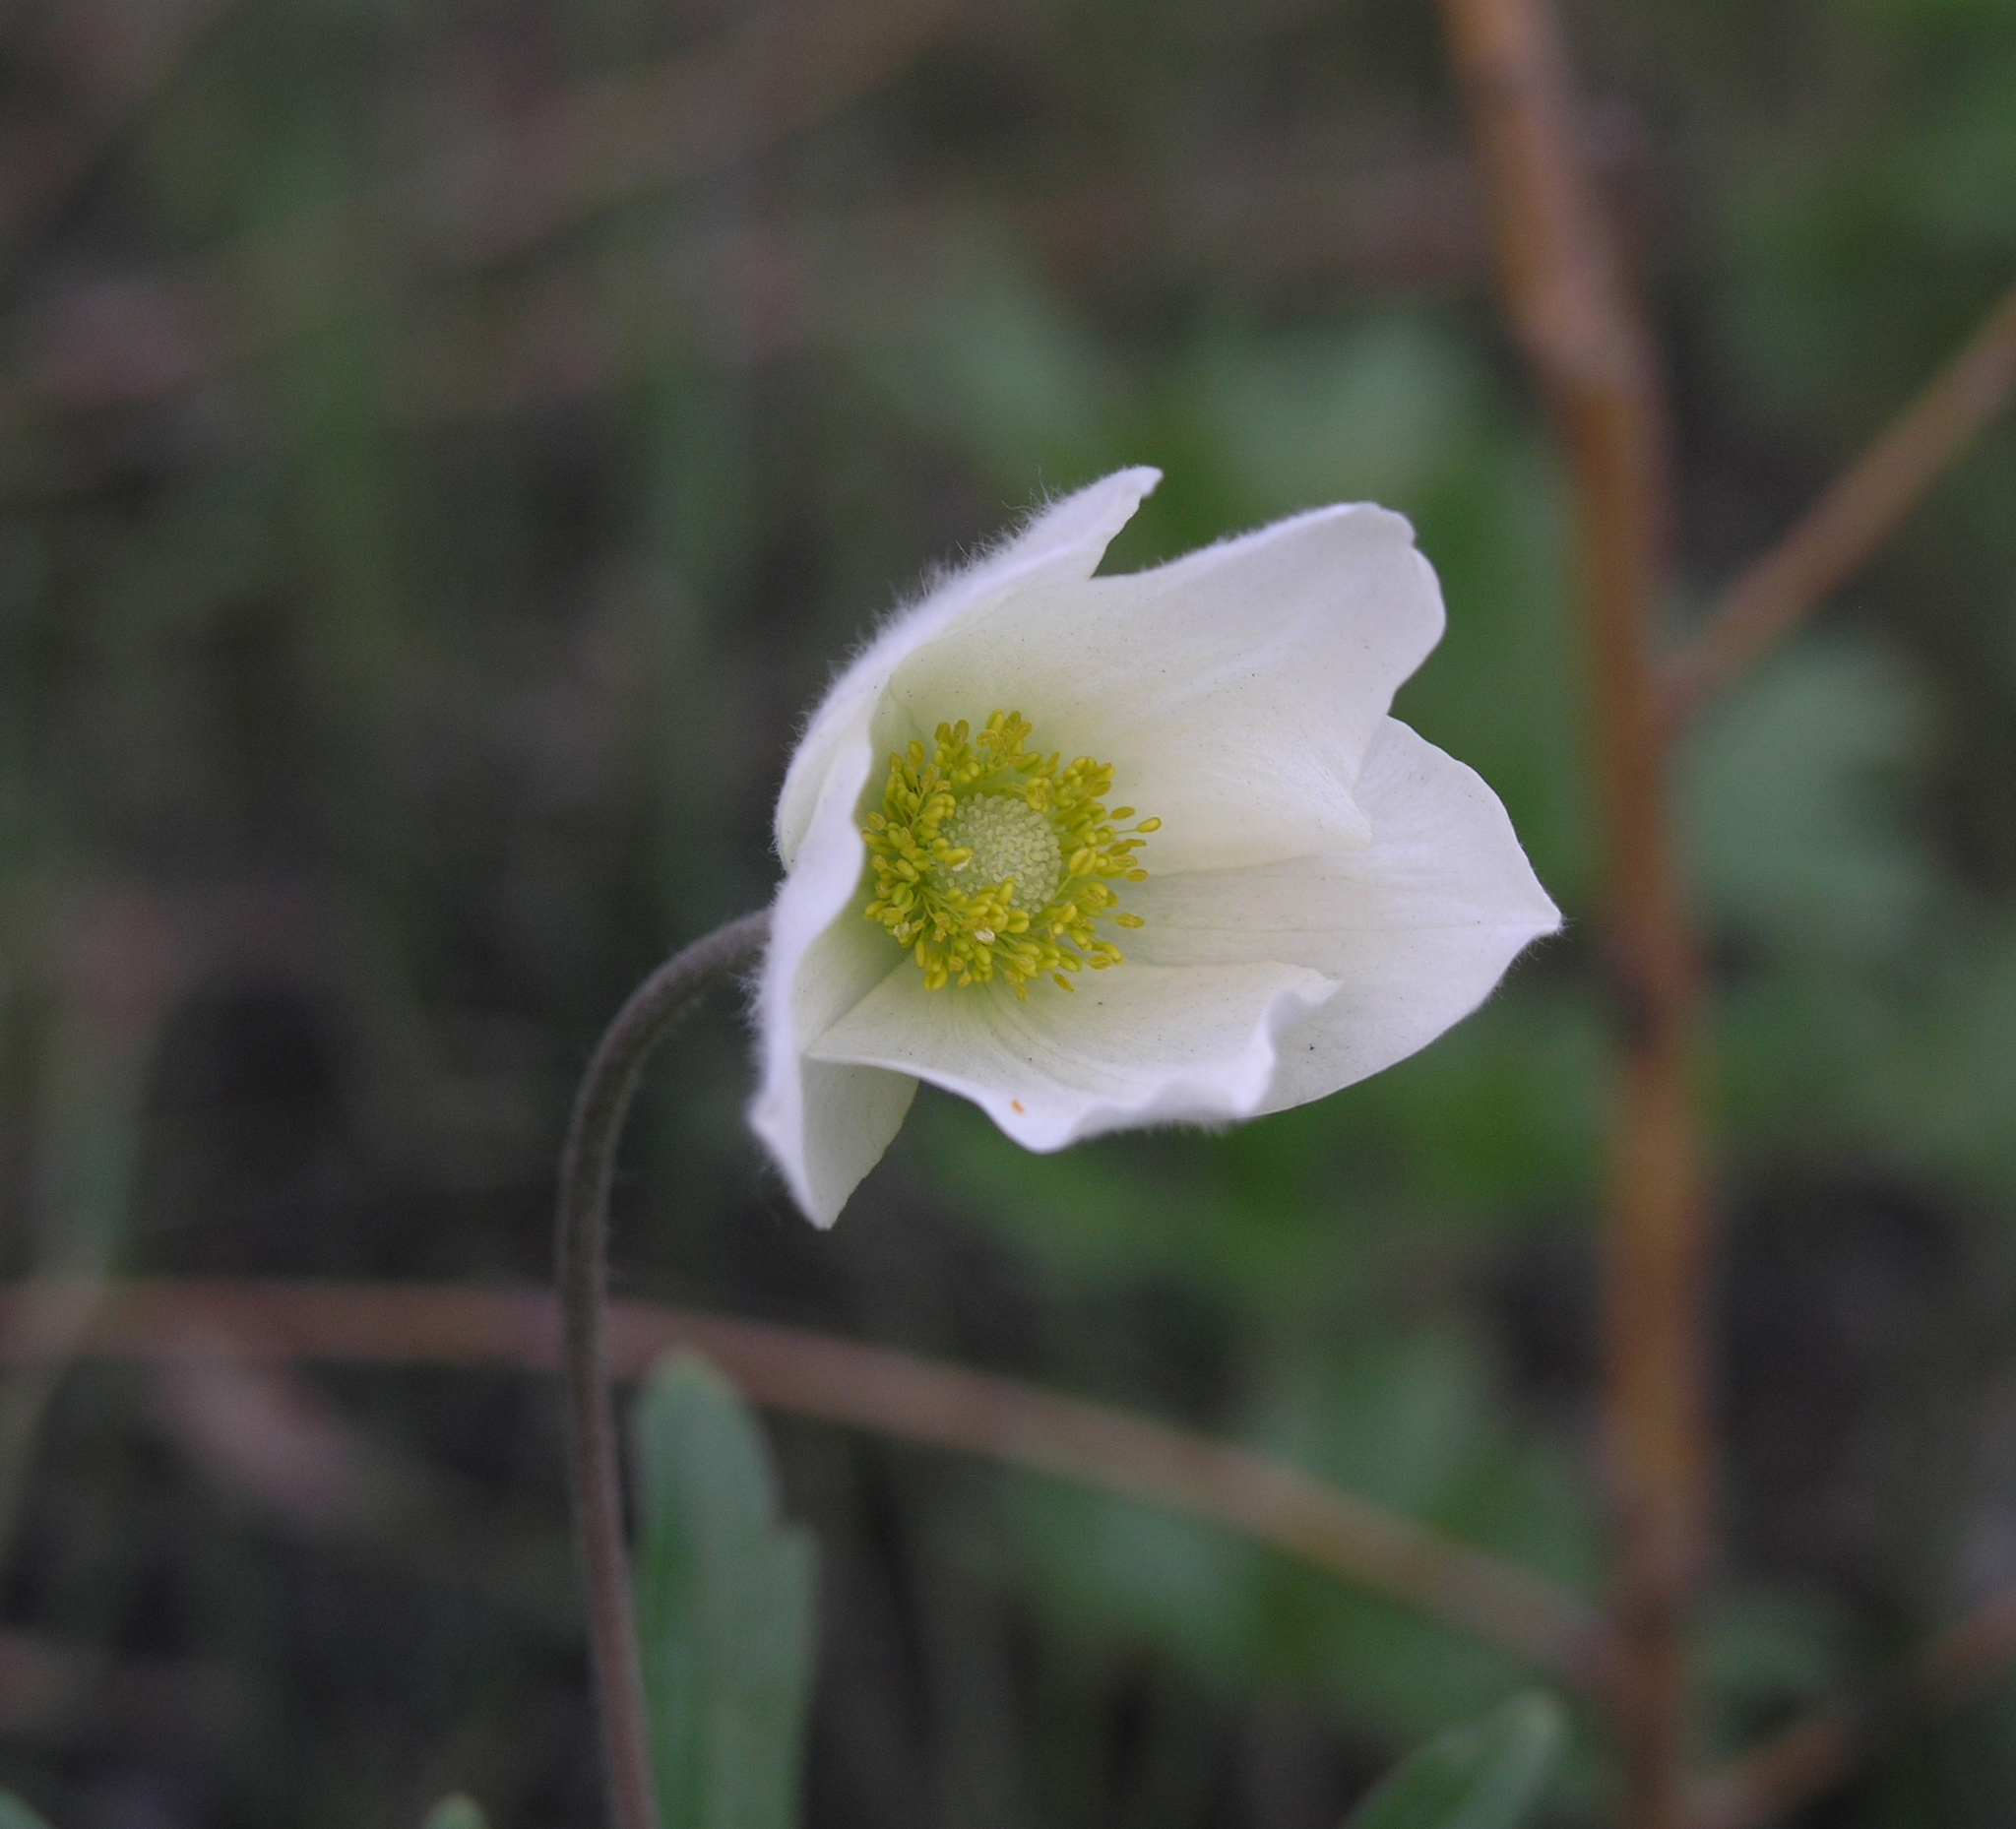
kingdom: Plantae
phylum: Tracheophyta
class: Magnoliopsida
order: Ranunculales
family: Ranunculaceae
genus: Anemone
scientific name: Anemone sylvestris
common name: Snowdrop anemone
